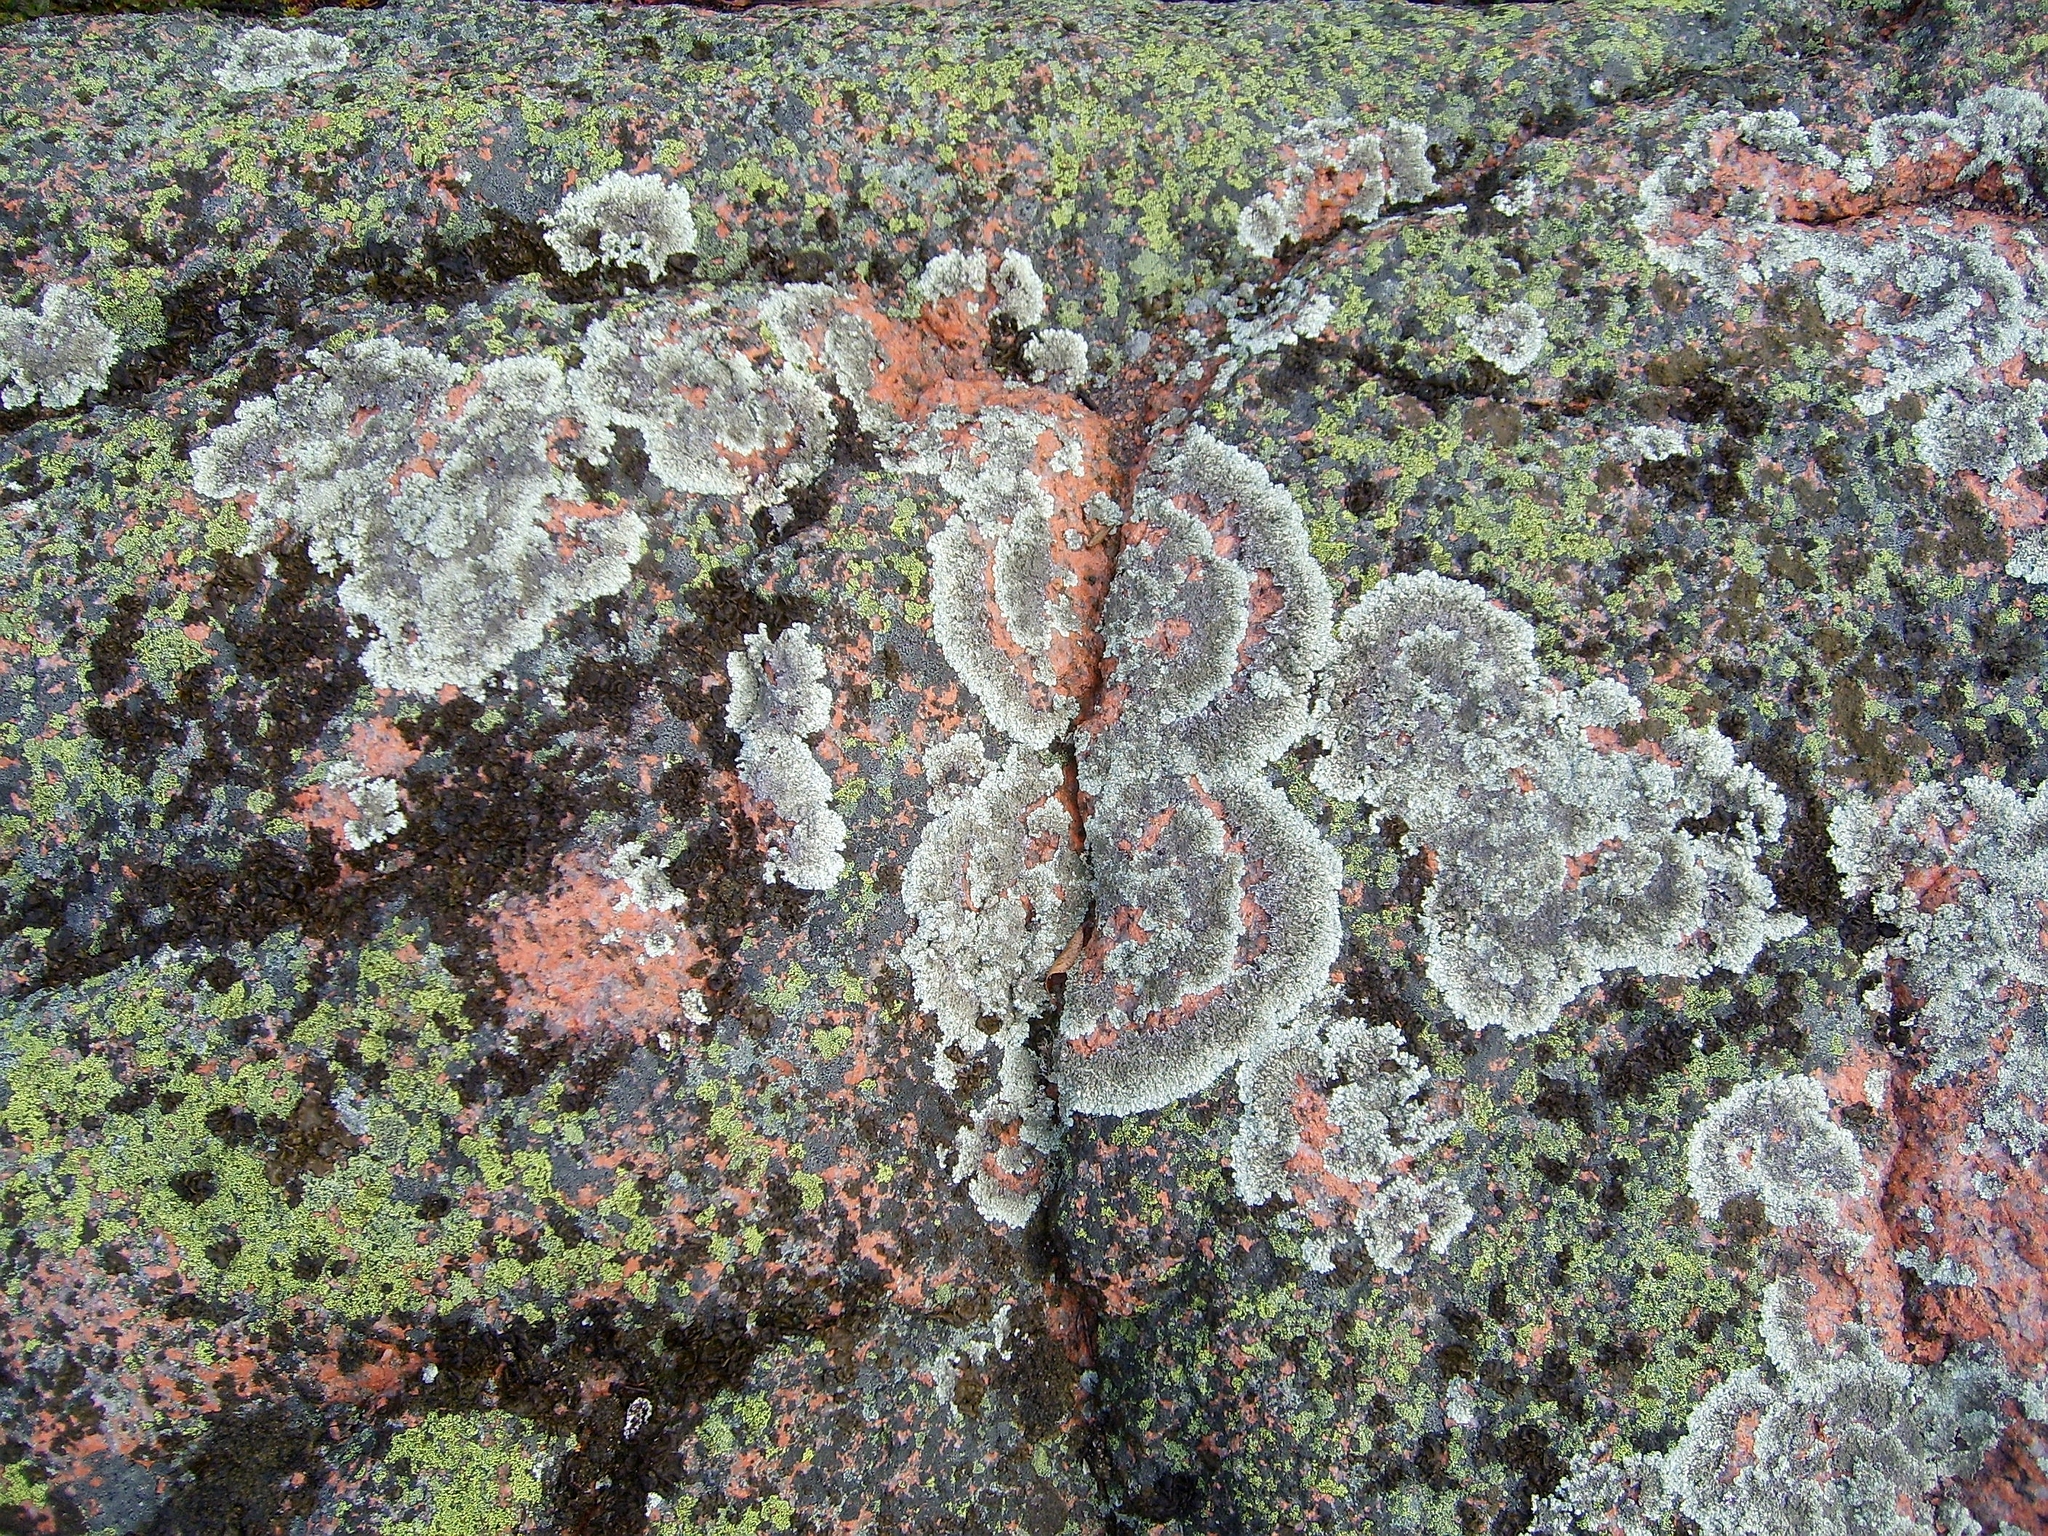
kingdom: Fungi
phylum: Ascomycota
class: Lecanoromycetes
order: Lecanorales
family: Parmeliaceae
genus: Arctoparmelia
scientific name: Arctoparmelia centrifuga
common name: Concentric ring lichen
